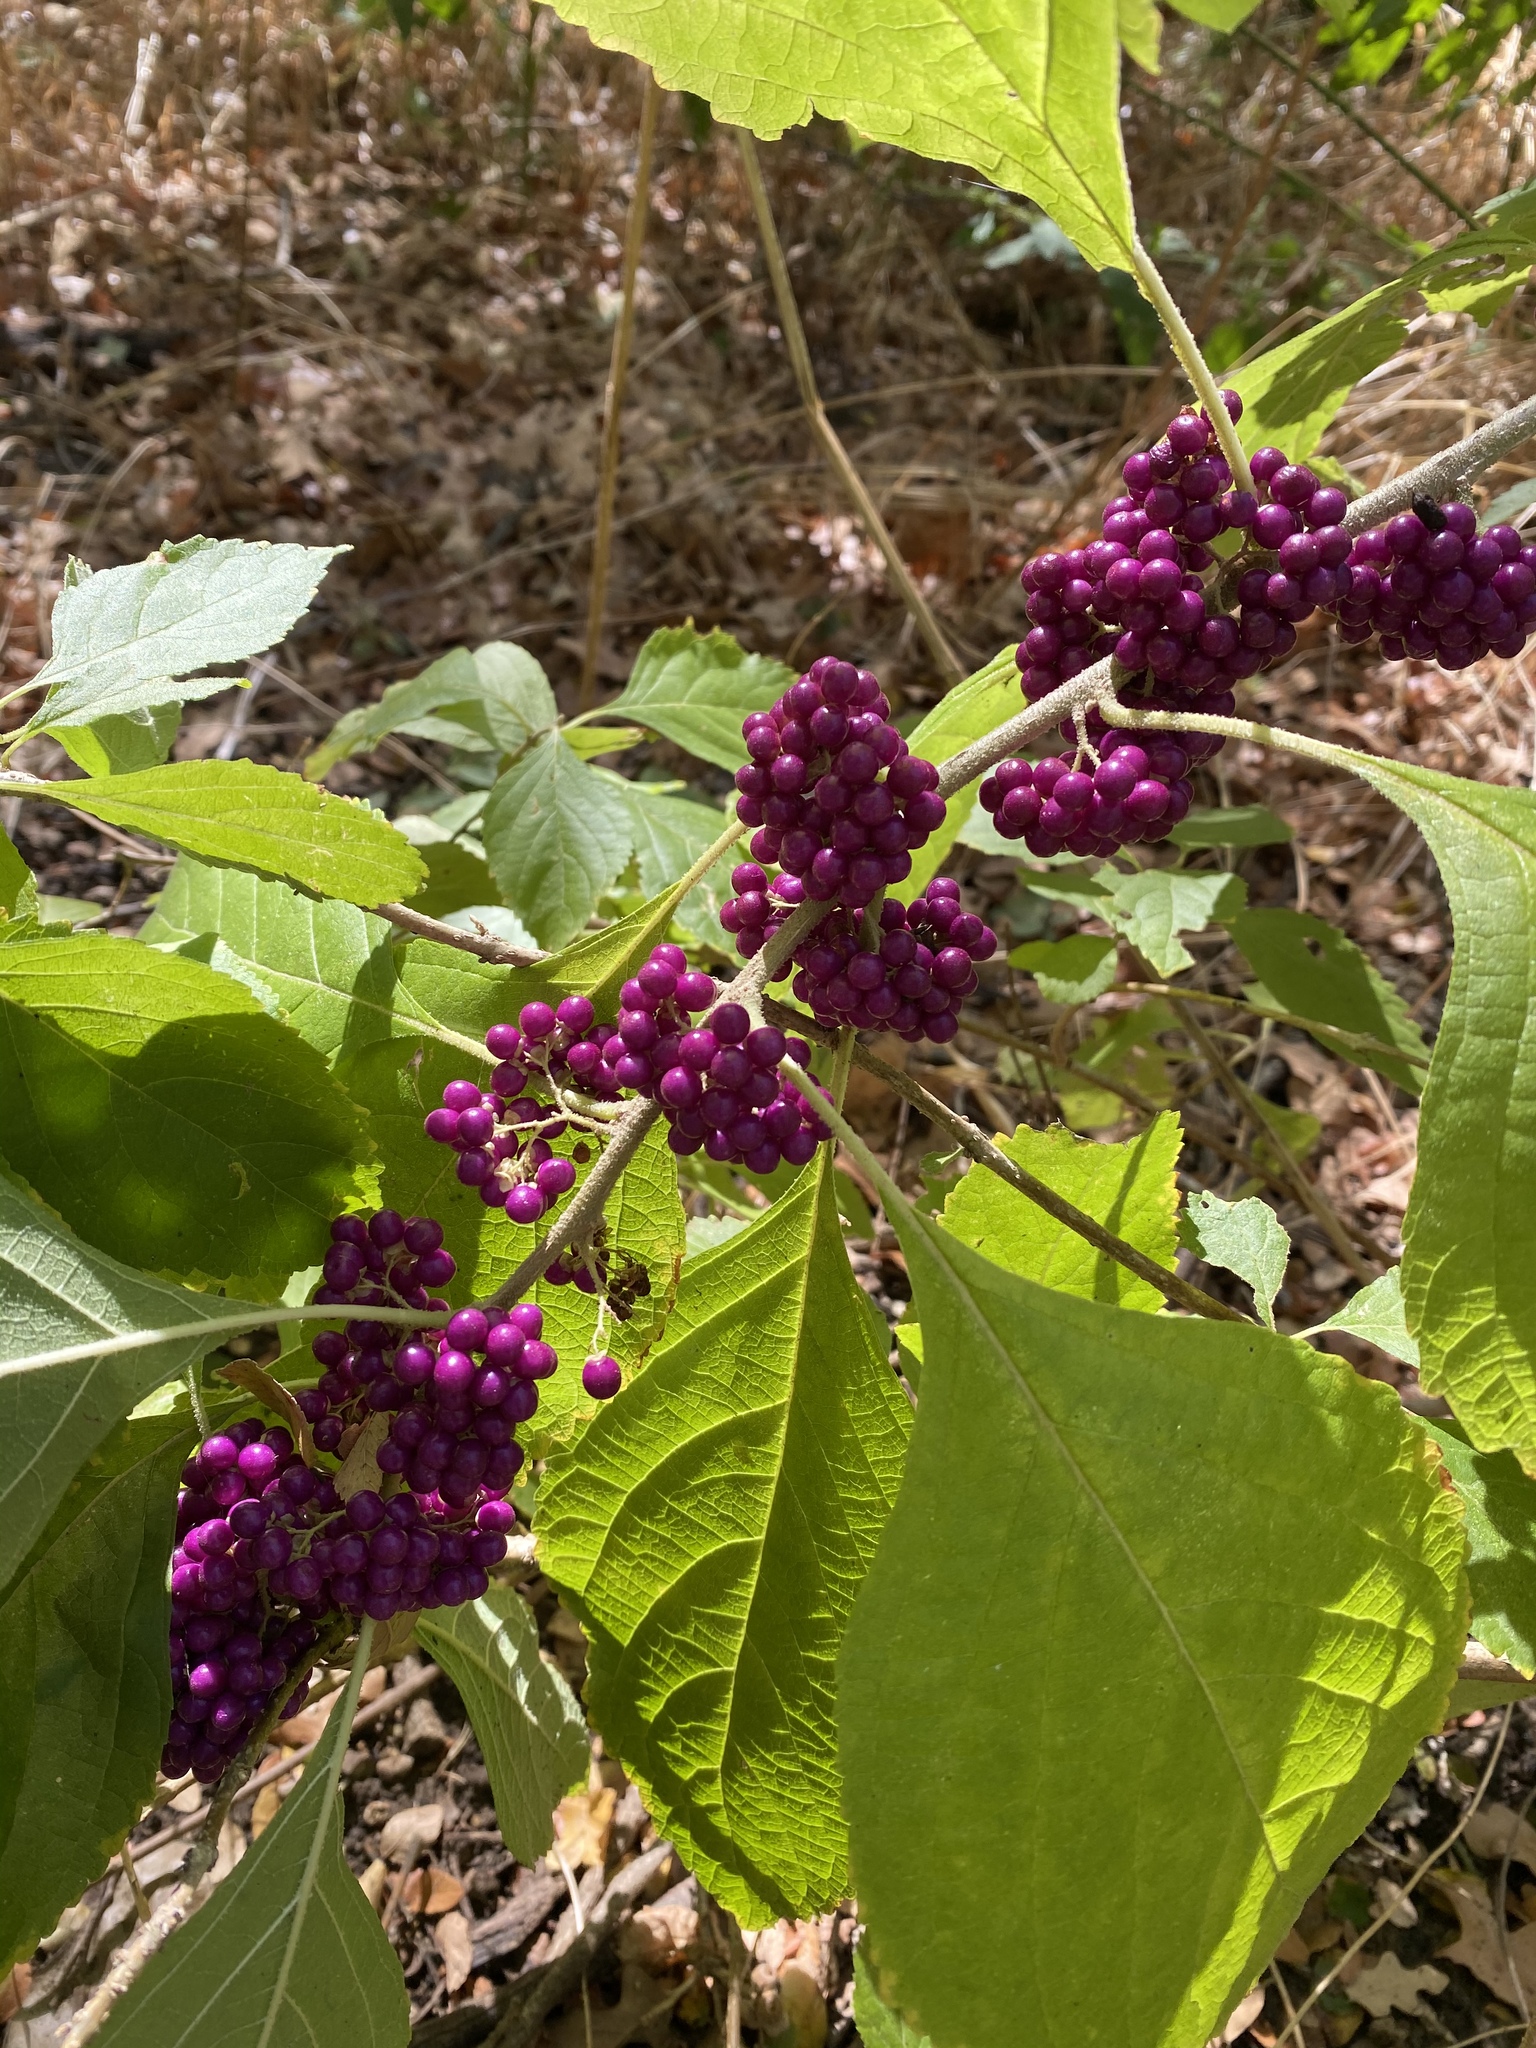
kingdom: Plantae
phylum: Tracheophyta
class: Magnoliopsida
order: Lamiales
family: Lamiaceae
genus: Callicarpa
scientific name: Callicarpa americana
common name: American beautyberry
